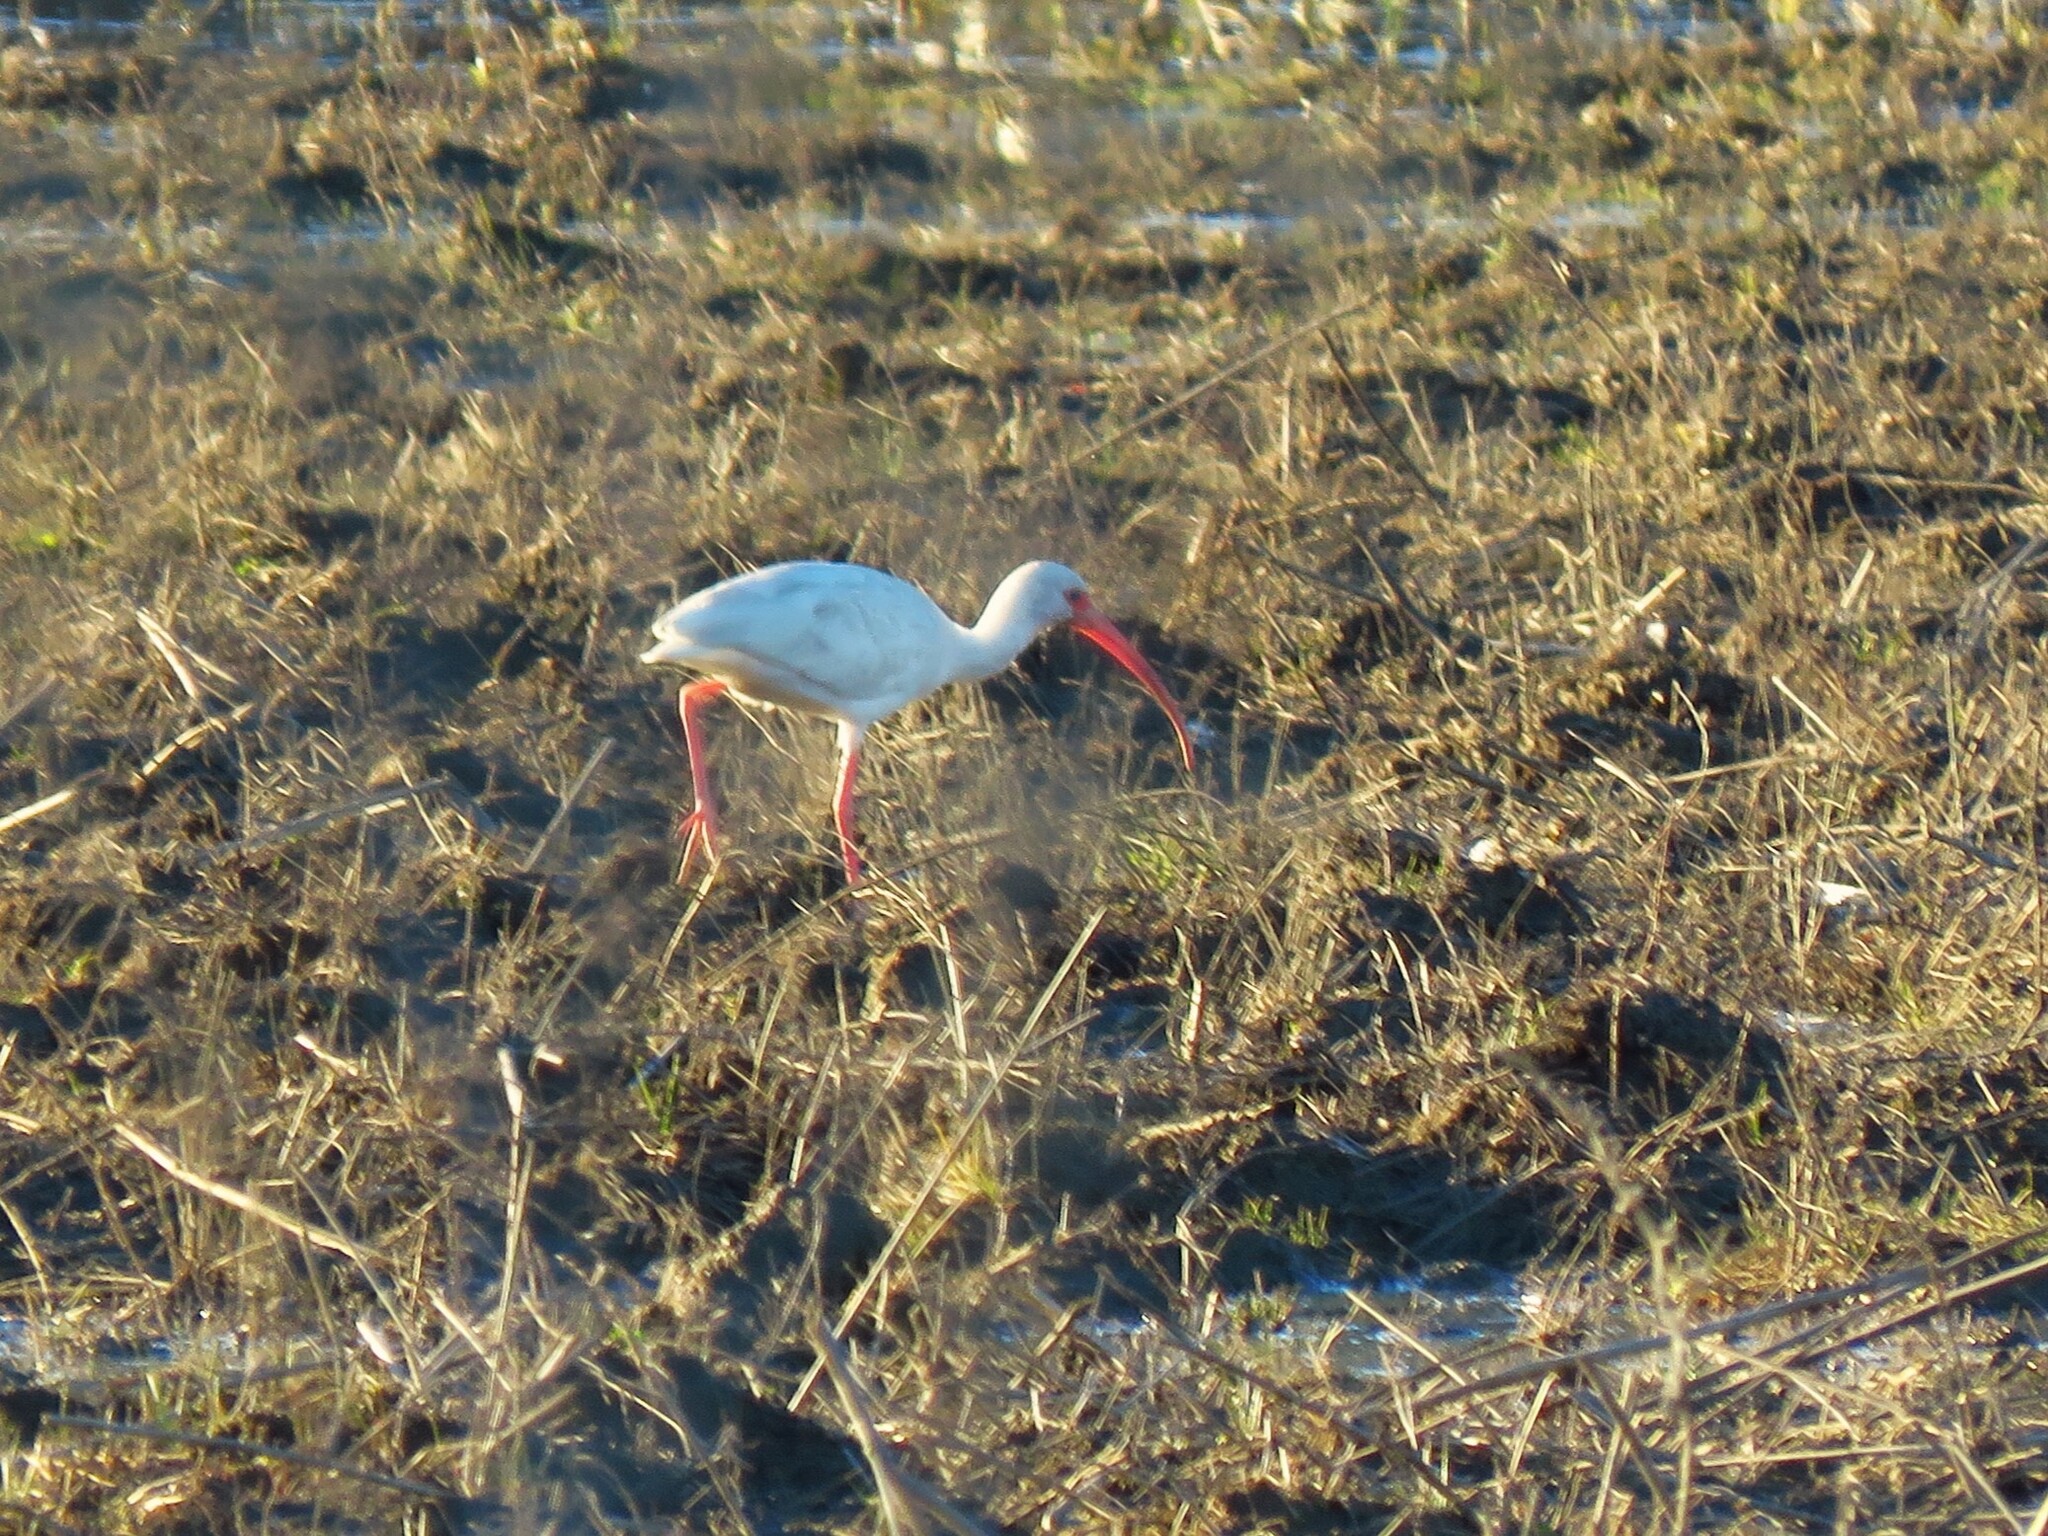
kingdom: Animalia
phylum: Chordata
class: Aves
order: Pelecaniformes
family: Threskiornithidae
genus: Eudocimus
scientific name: Eudocimus albus
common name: White ibis
